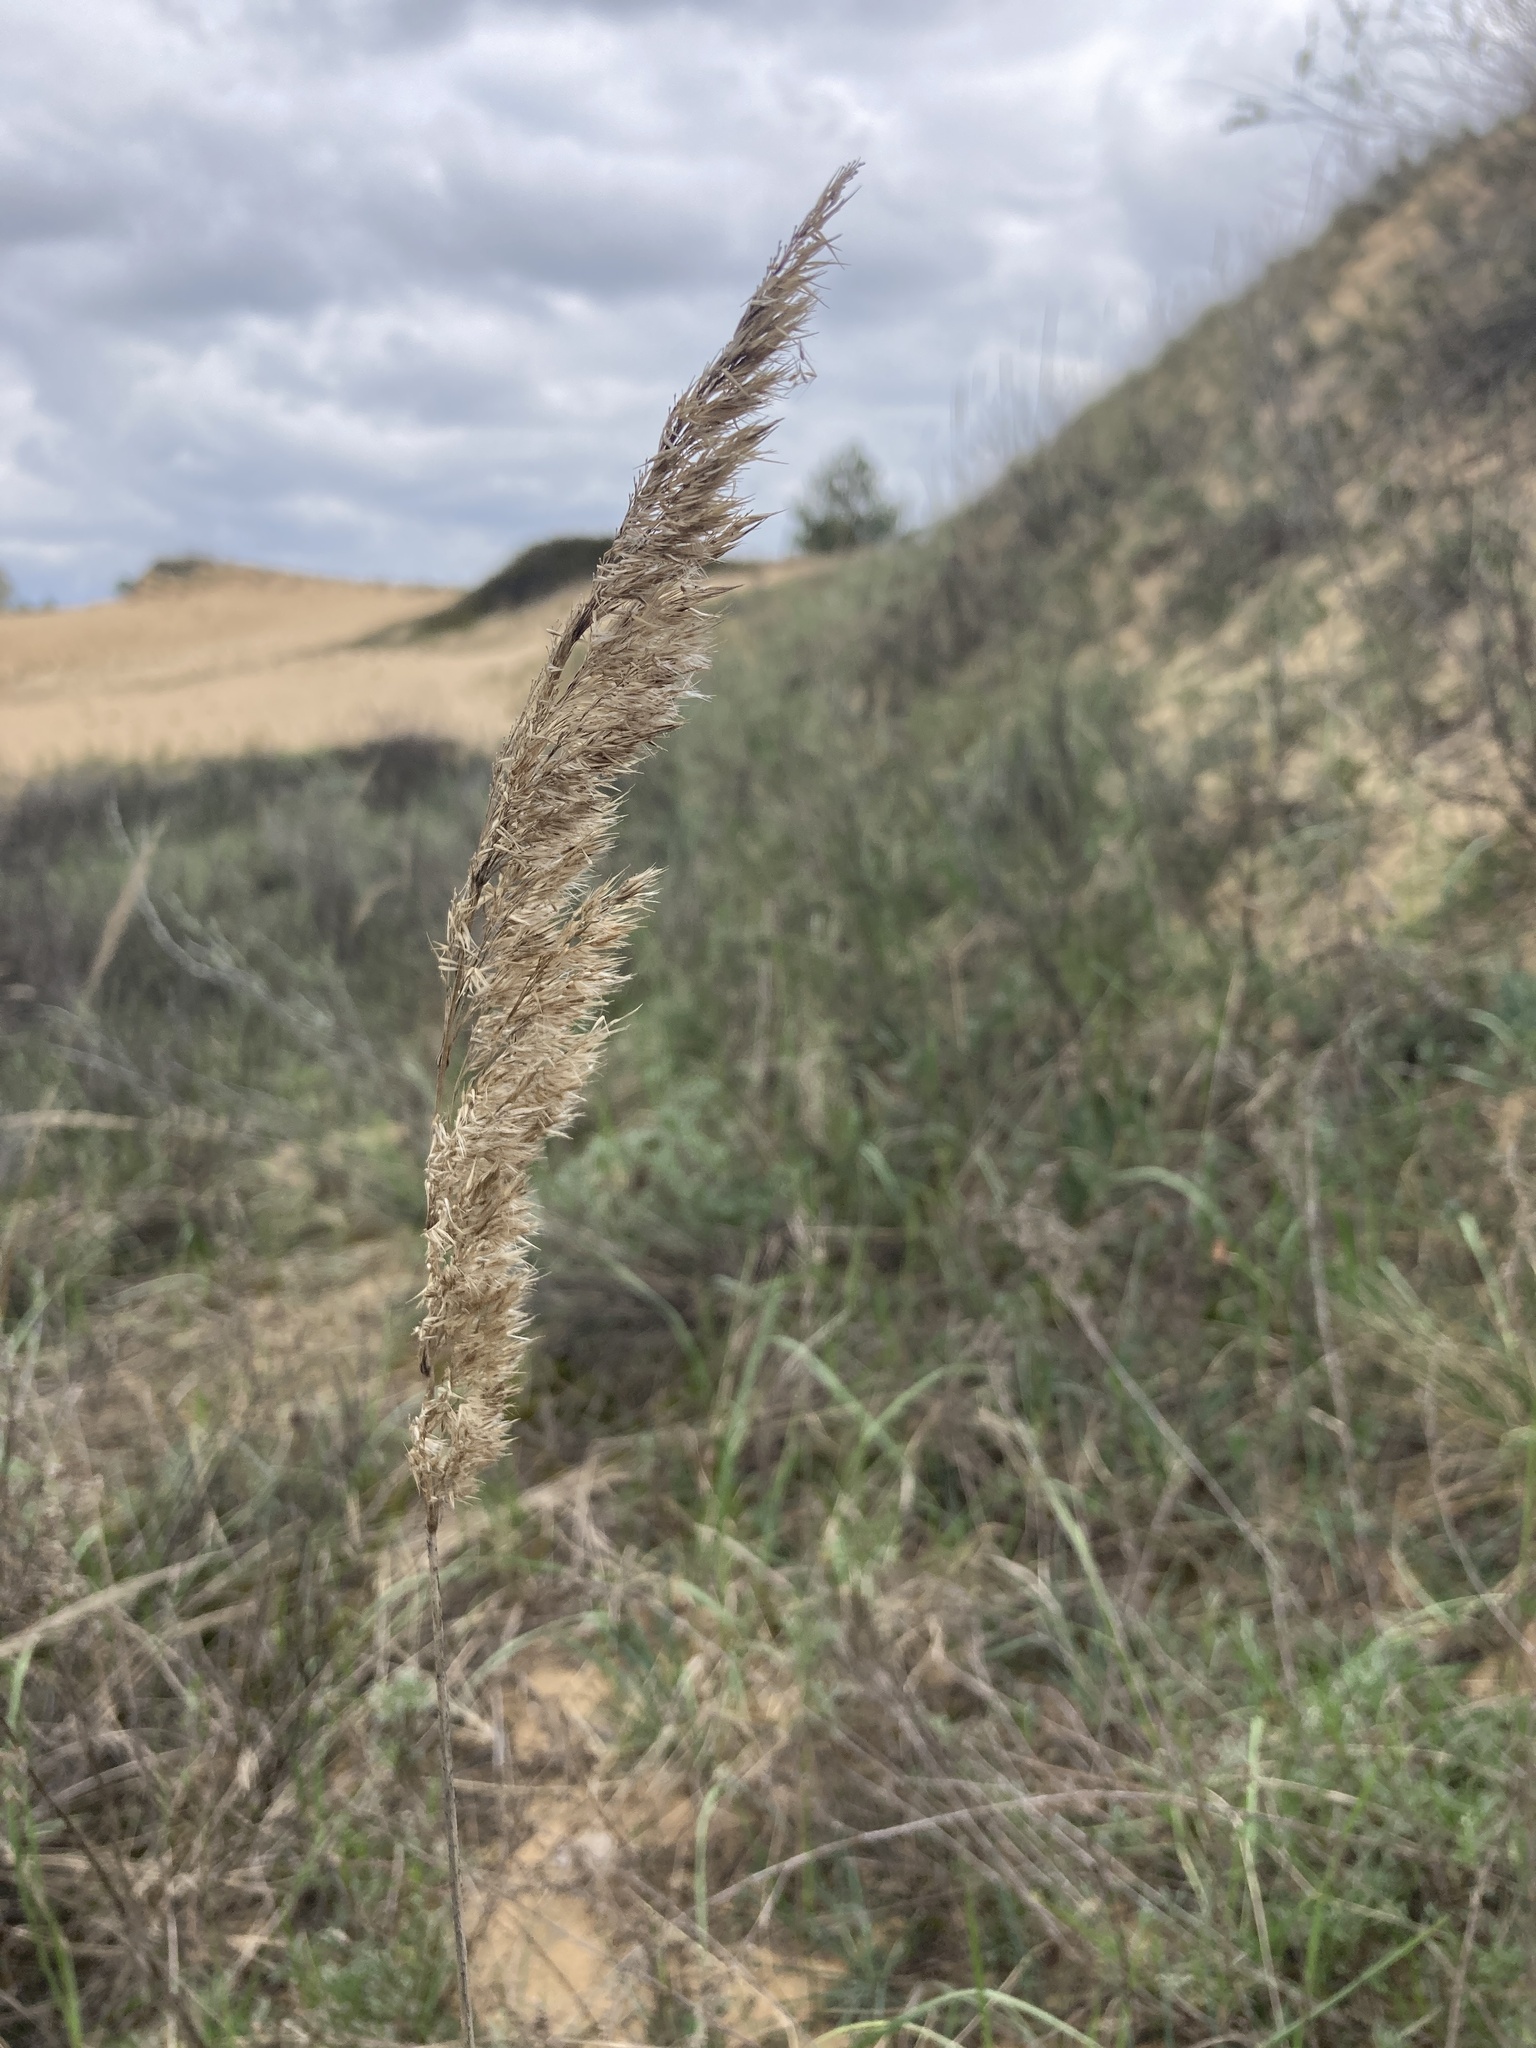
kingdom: Plantae
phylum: Tracheophyta
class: Liliopsida
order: Poales
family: Poaceae
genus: Calamagrostis
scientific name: Calamagrostis epigejos
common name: Wood small-reed
